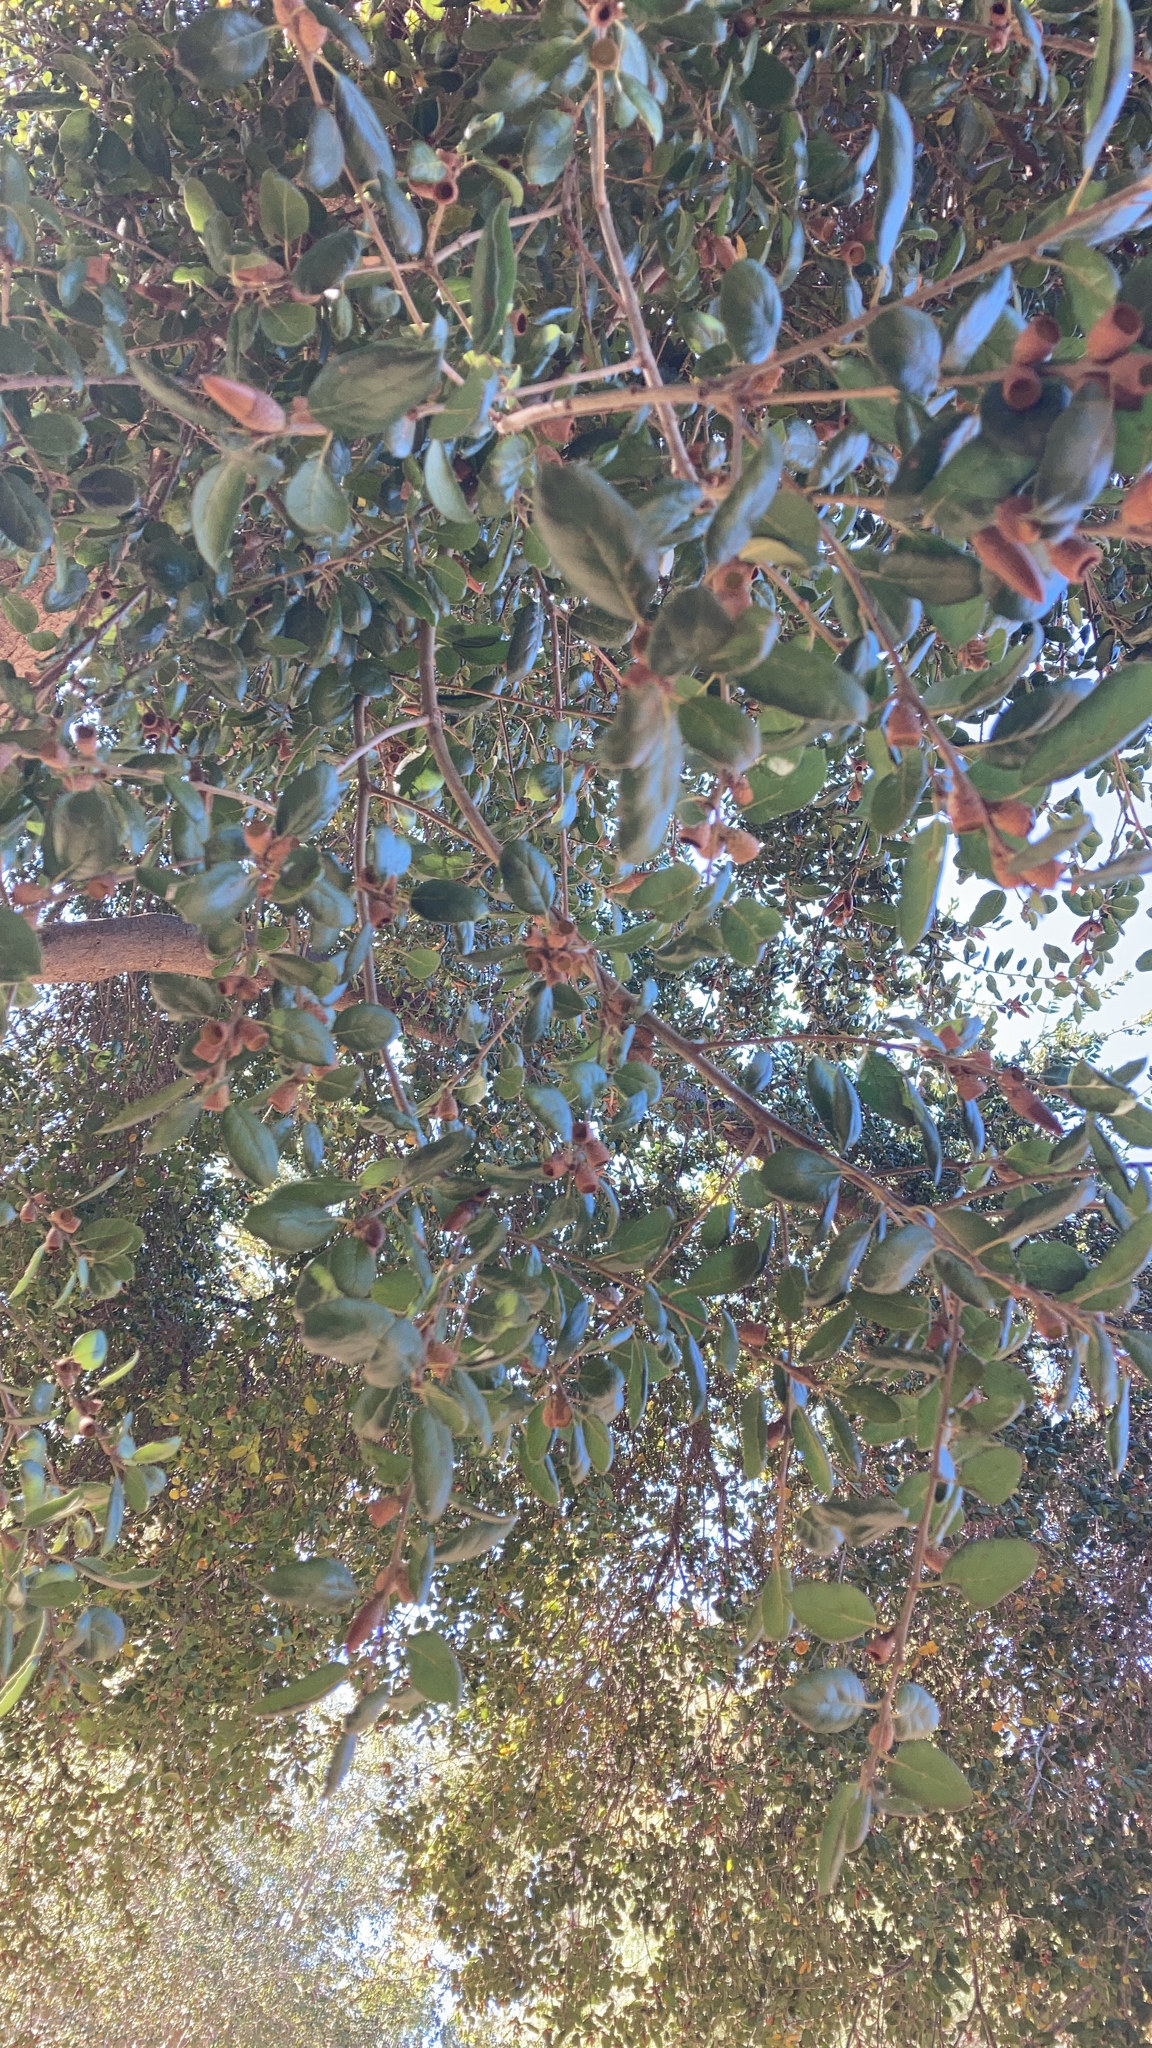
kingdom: Plantae
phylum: Tracheophyta
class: Magnoliopsida
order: Fagales
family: Fagaceae
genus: Quercus
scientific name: Quercus agrifolia
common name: California live oak
